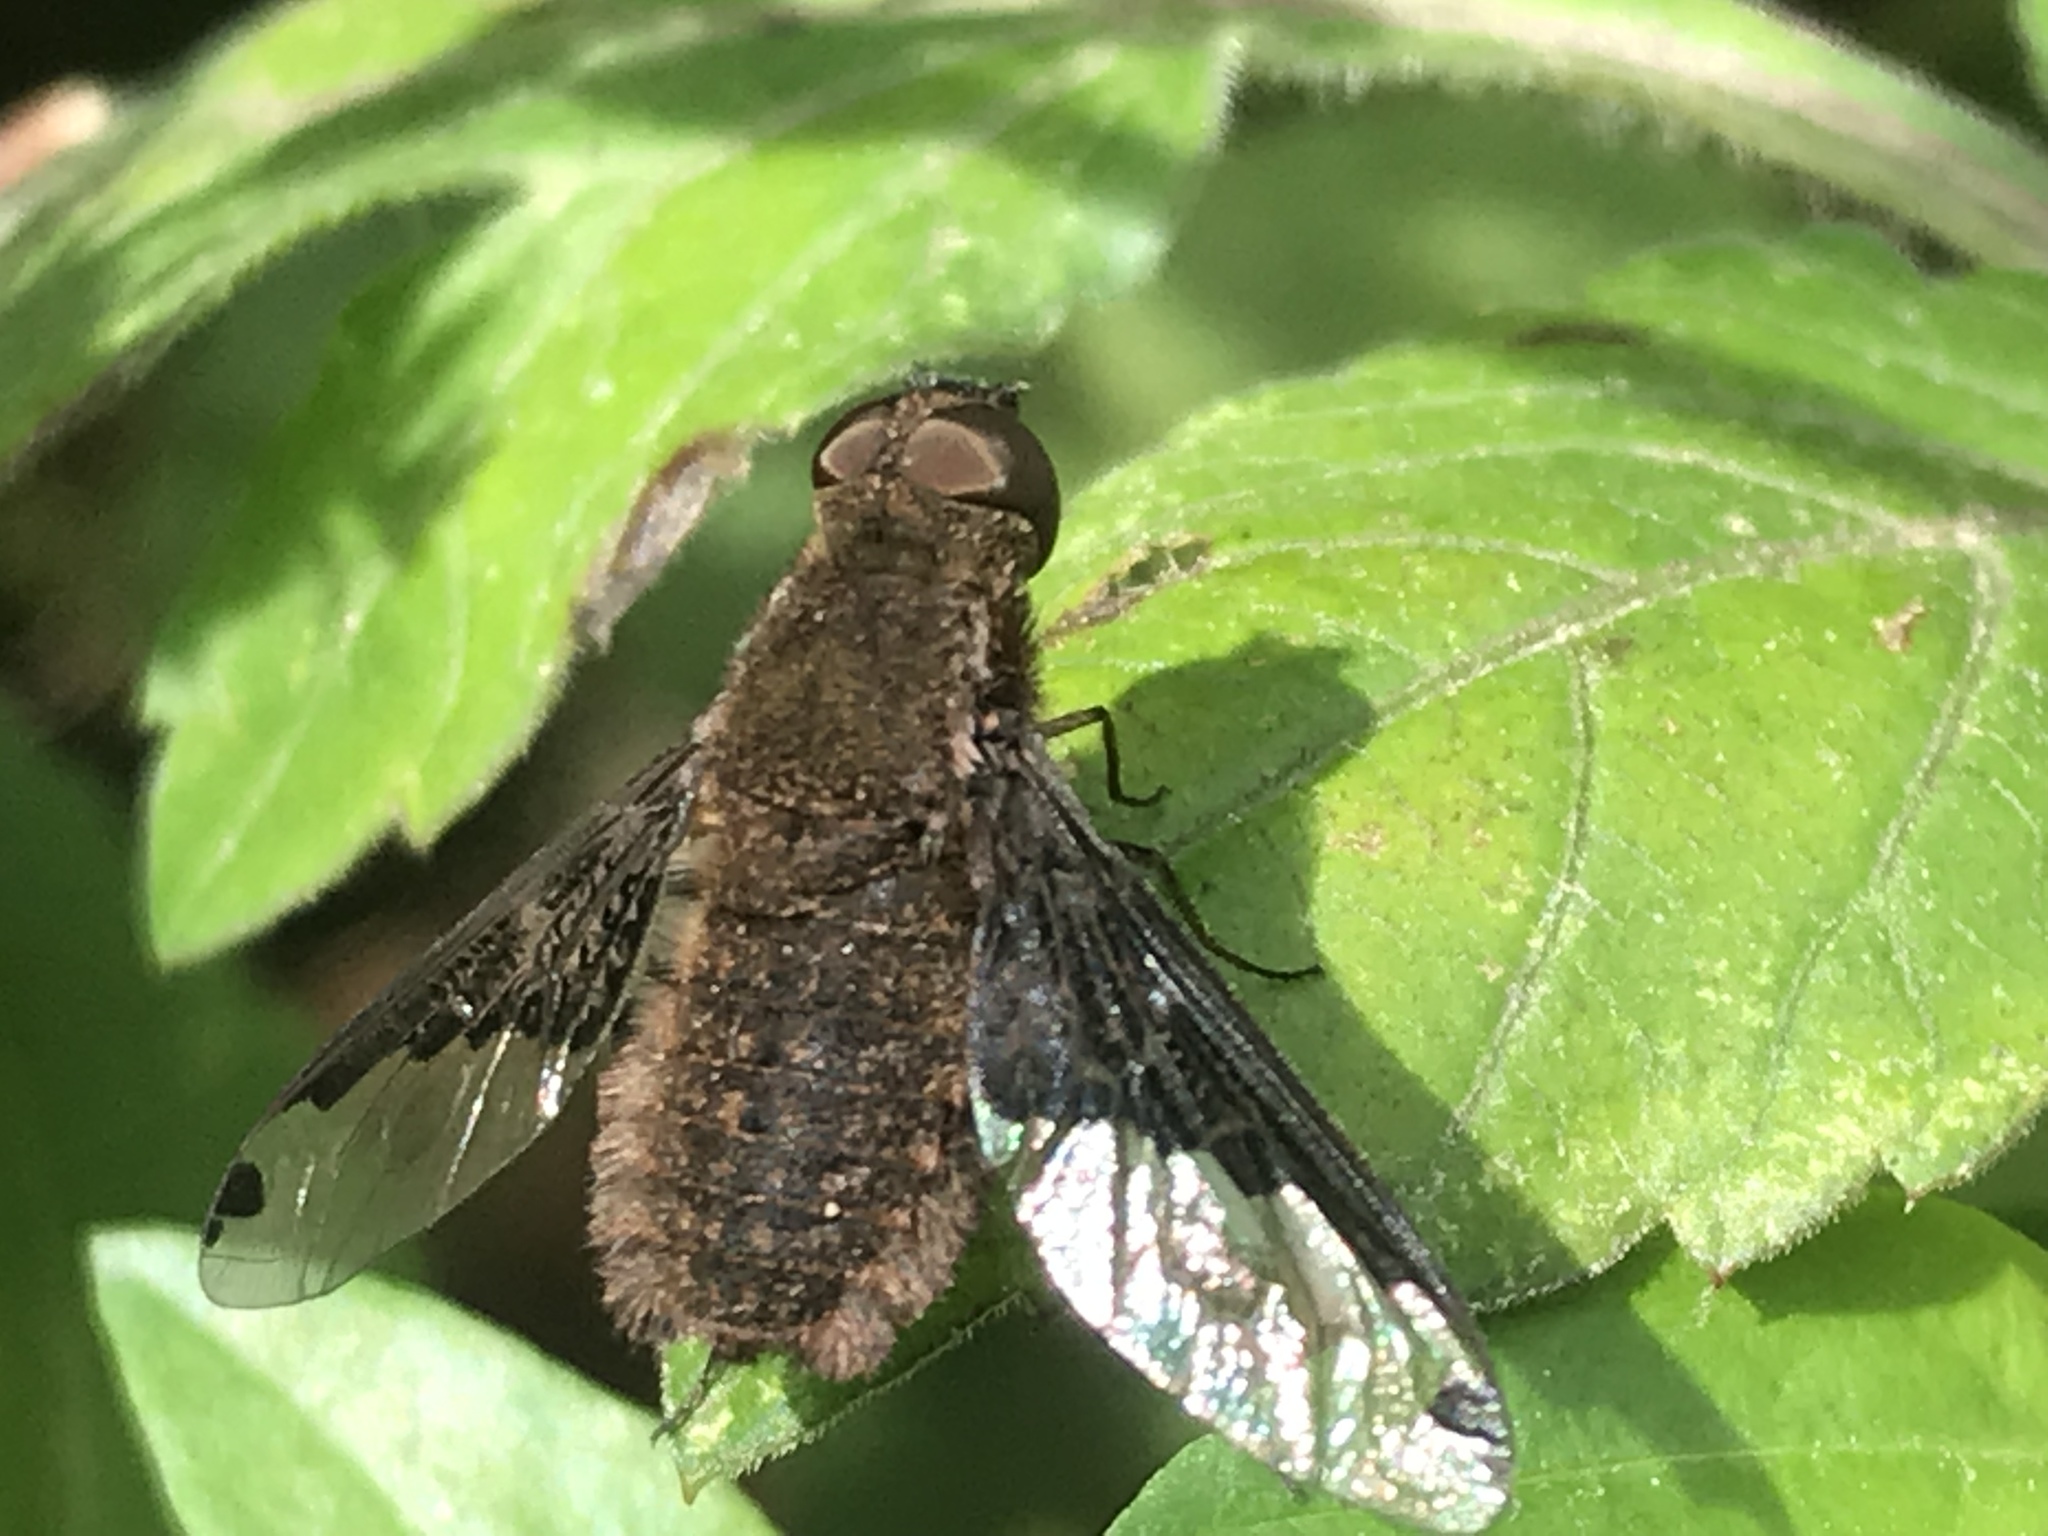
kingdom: Animalia
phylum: Arthropoda
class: Insecta
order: Diptera
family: Bombyliidae
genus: Hemipenthes
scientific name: Hemipenthes sinuosus
